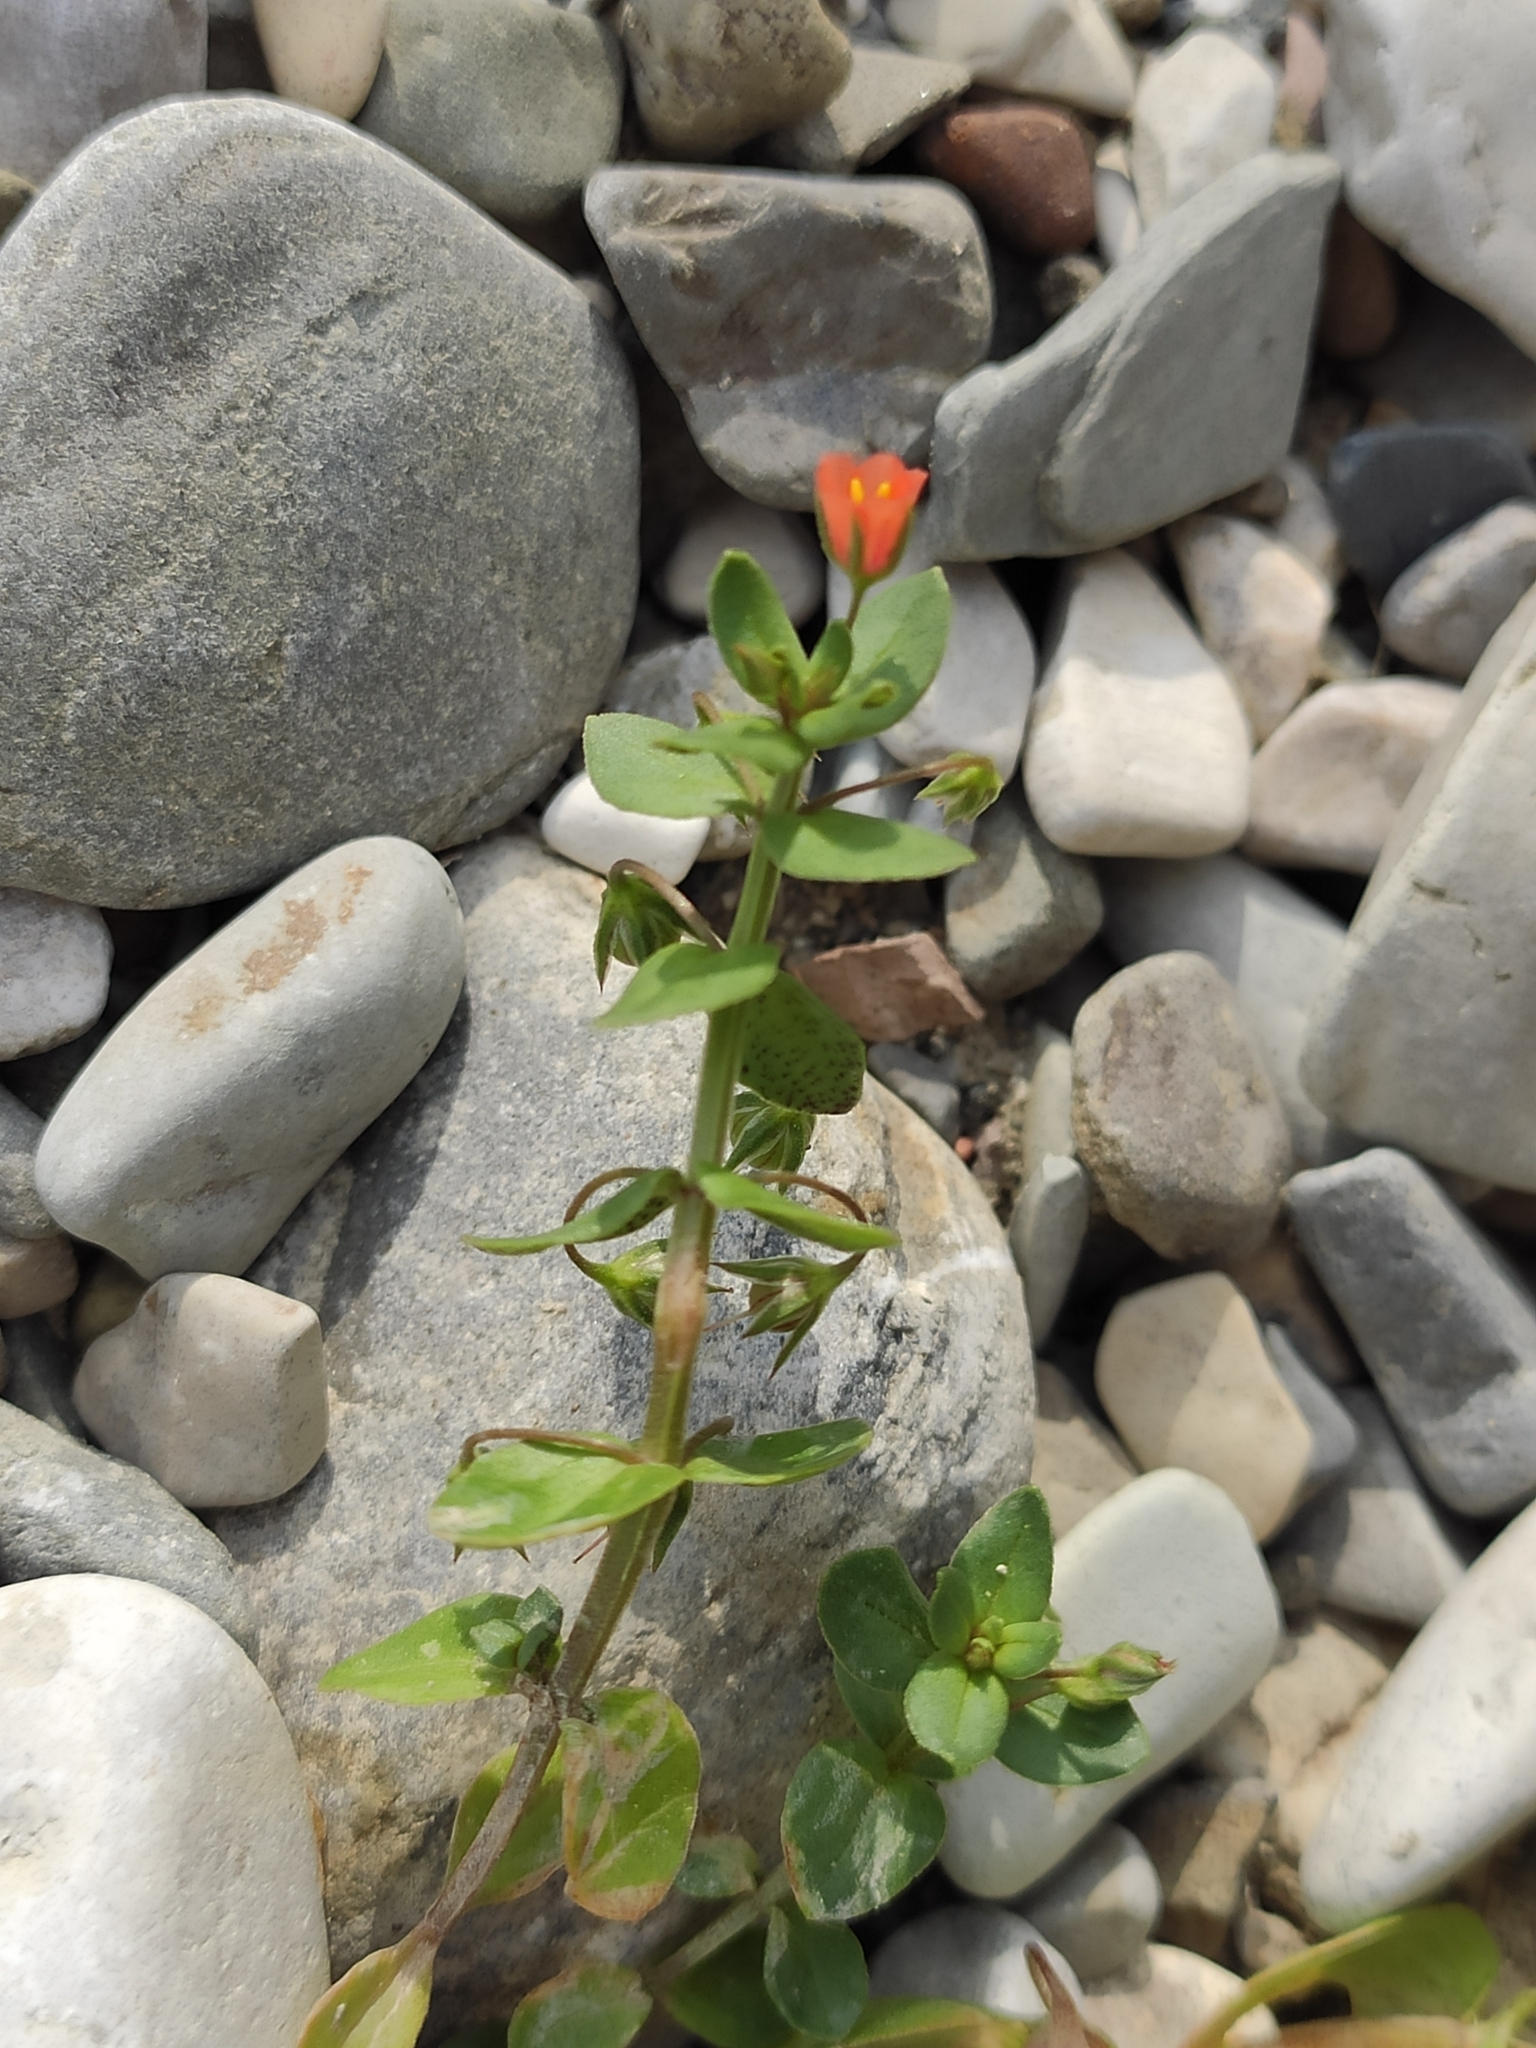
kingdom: Plantae
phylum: Tracheophyta
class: Magnoliopsida
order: Ericales
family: Primulaceae
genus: Lysimachia
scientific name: Lysimachia arvensis
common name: Scarlet pimpernel
